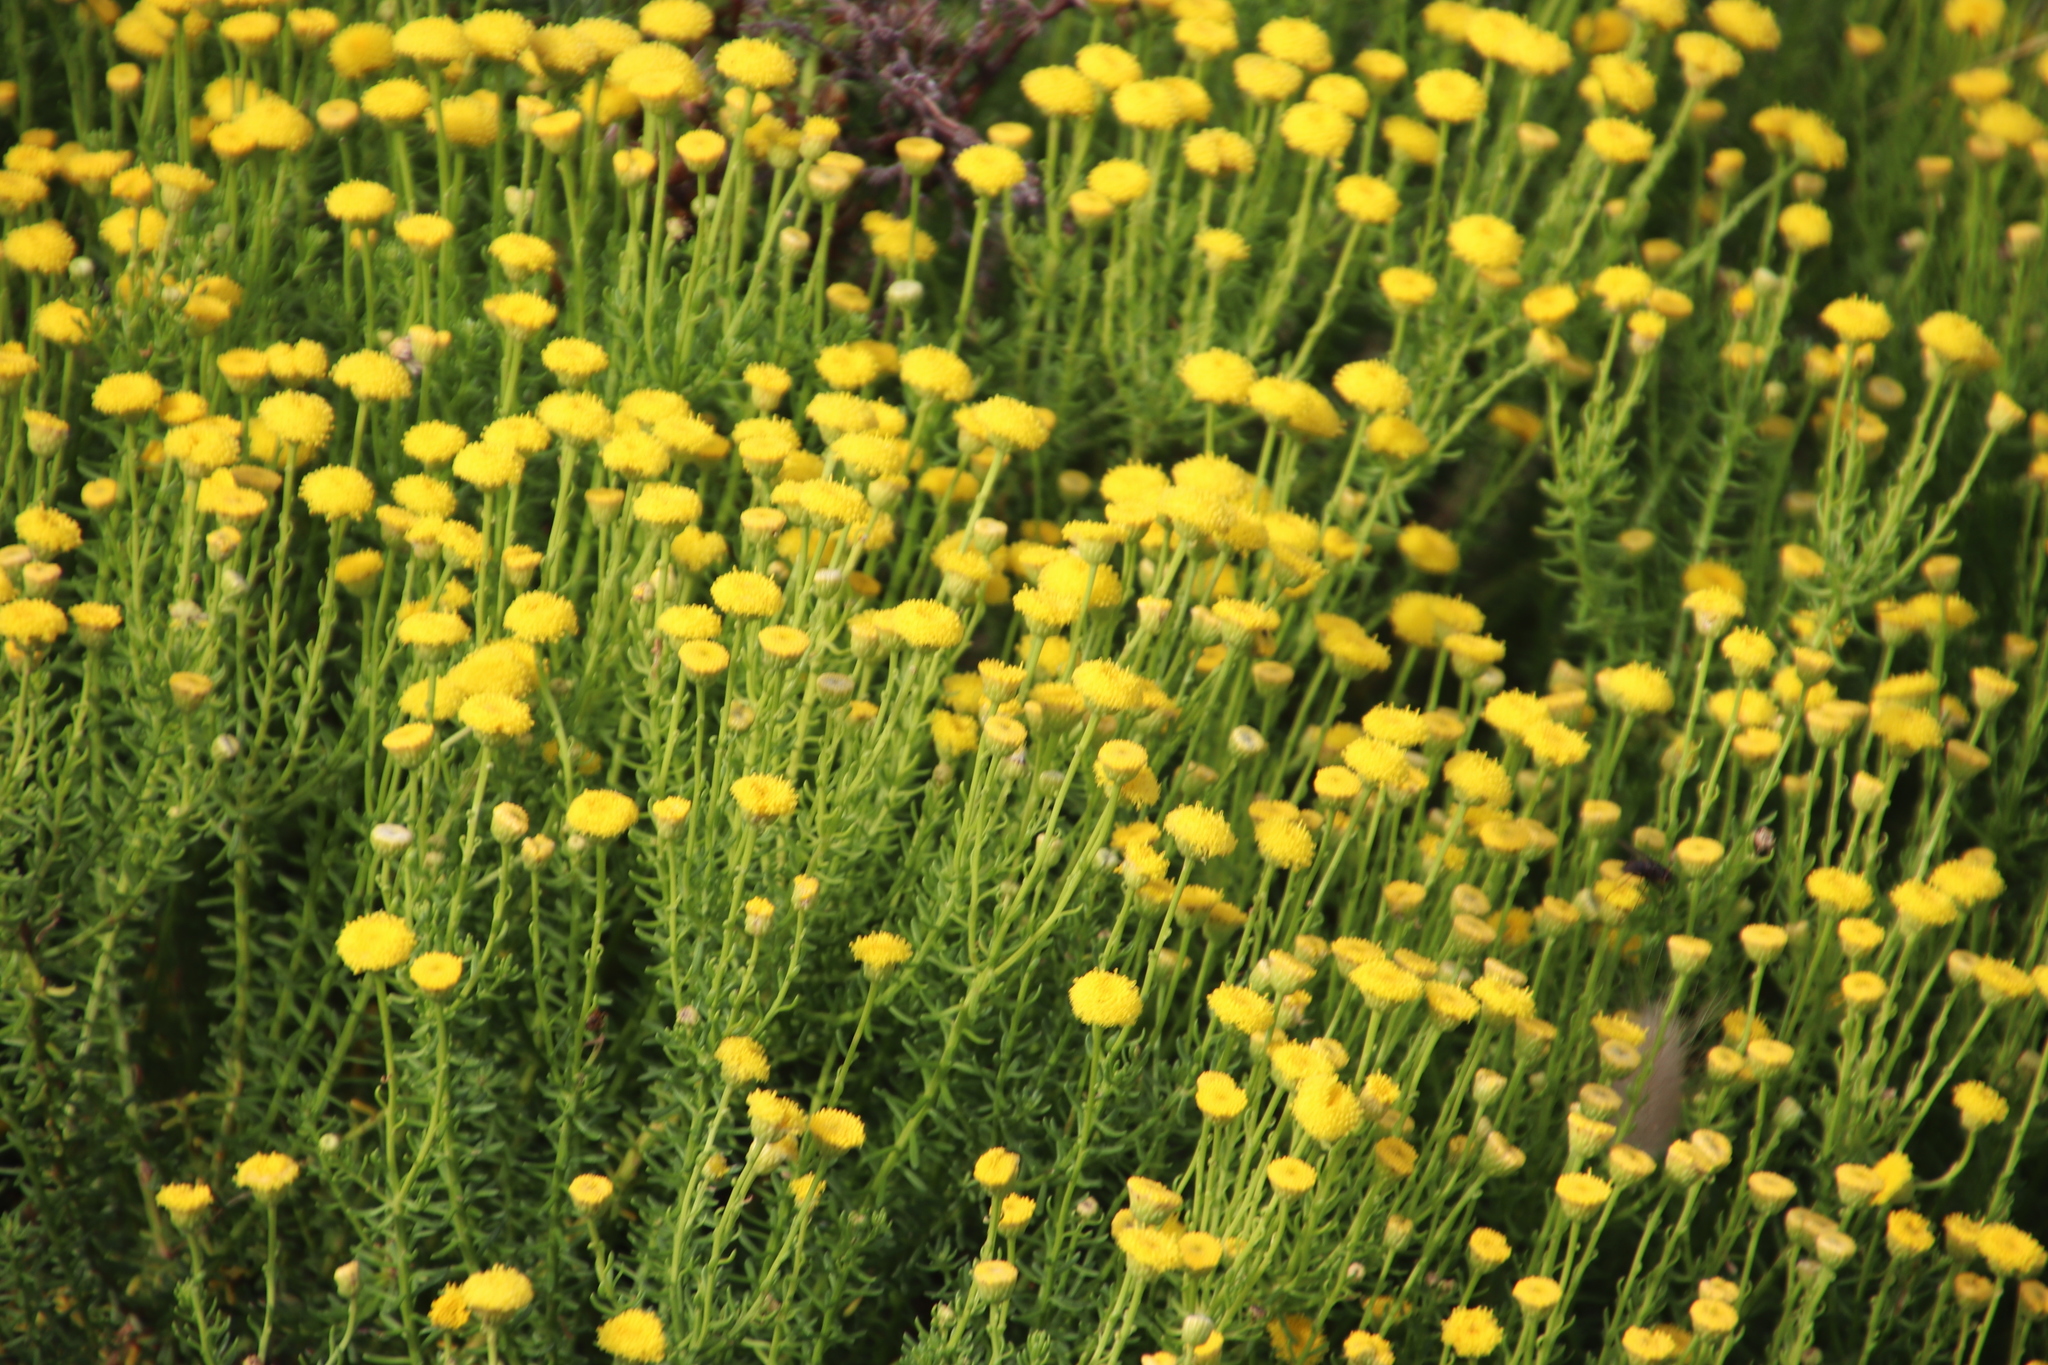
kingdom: Plantae
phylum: Tracheophyta
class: Magnoliopsida
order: Asterales
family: Asteraceae
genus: Chrysocoma
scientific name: Chrysocoma ciliata
